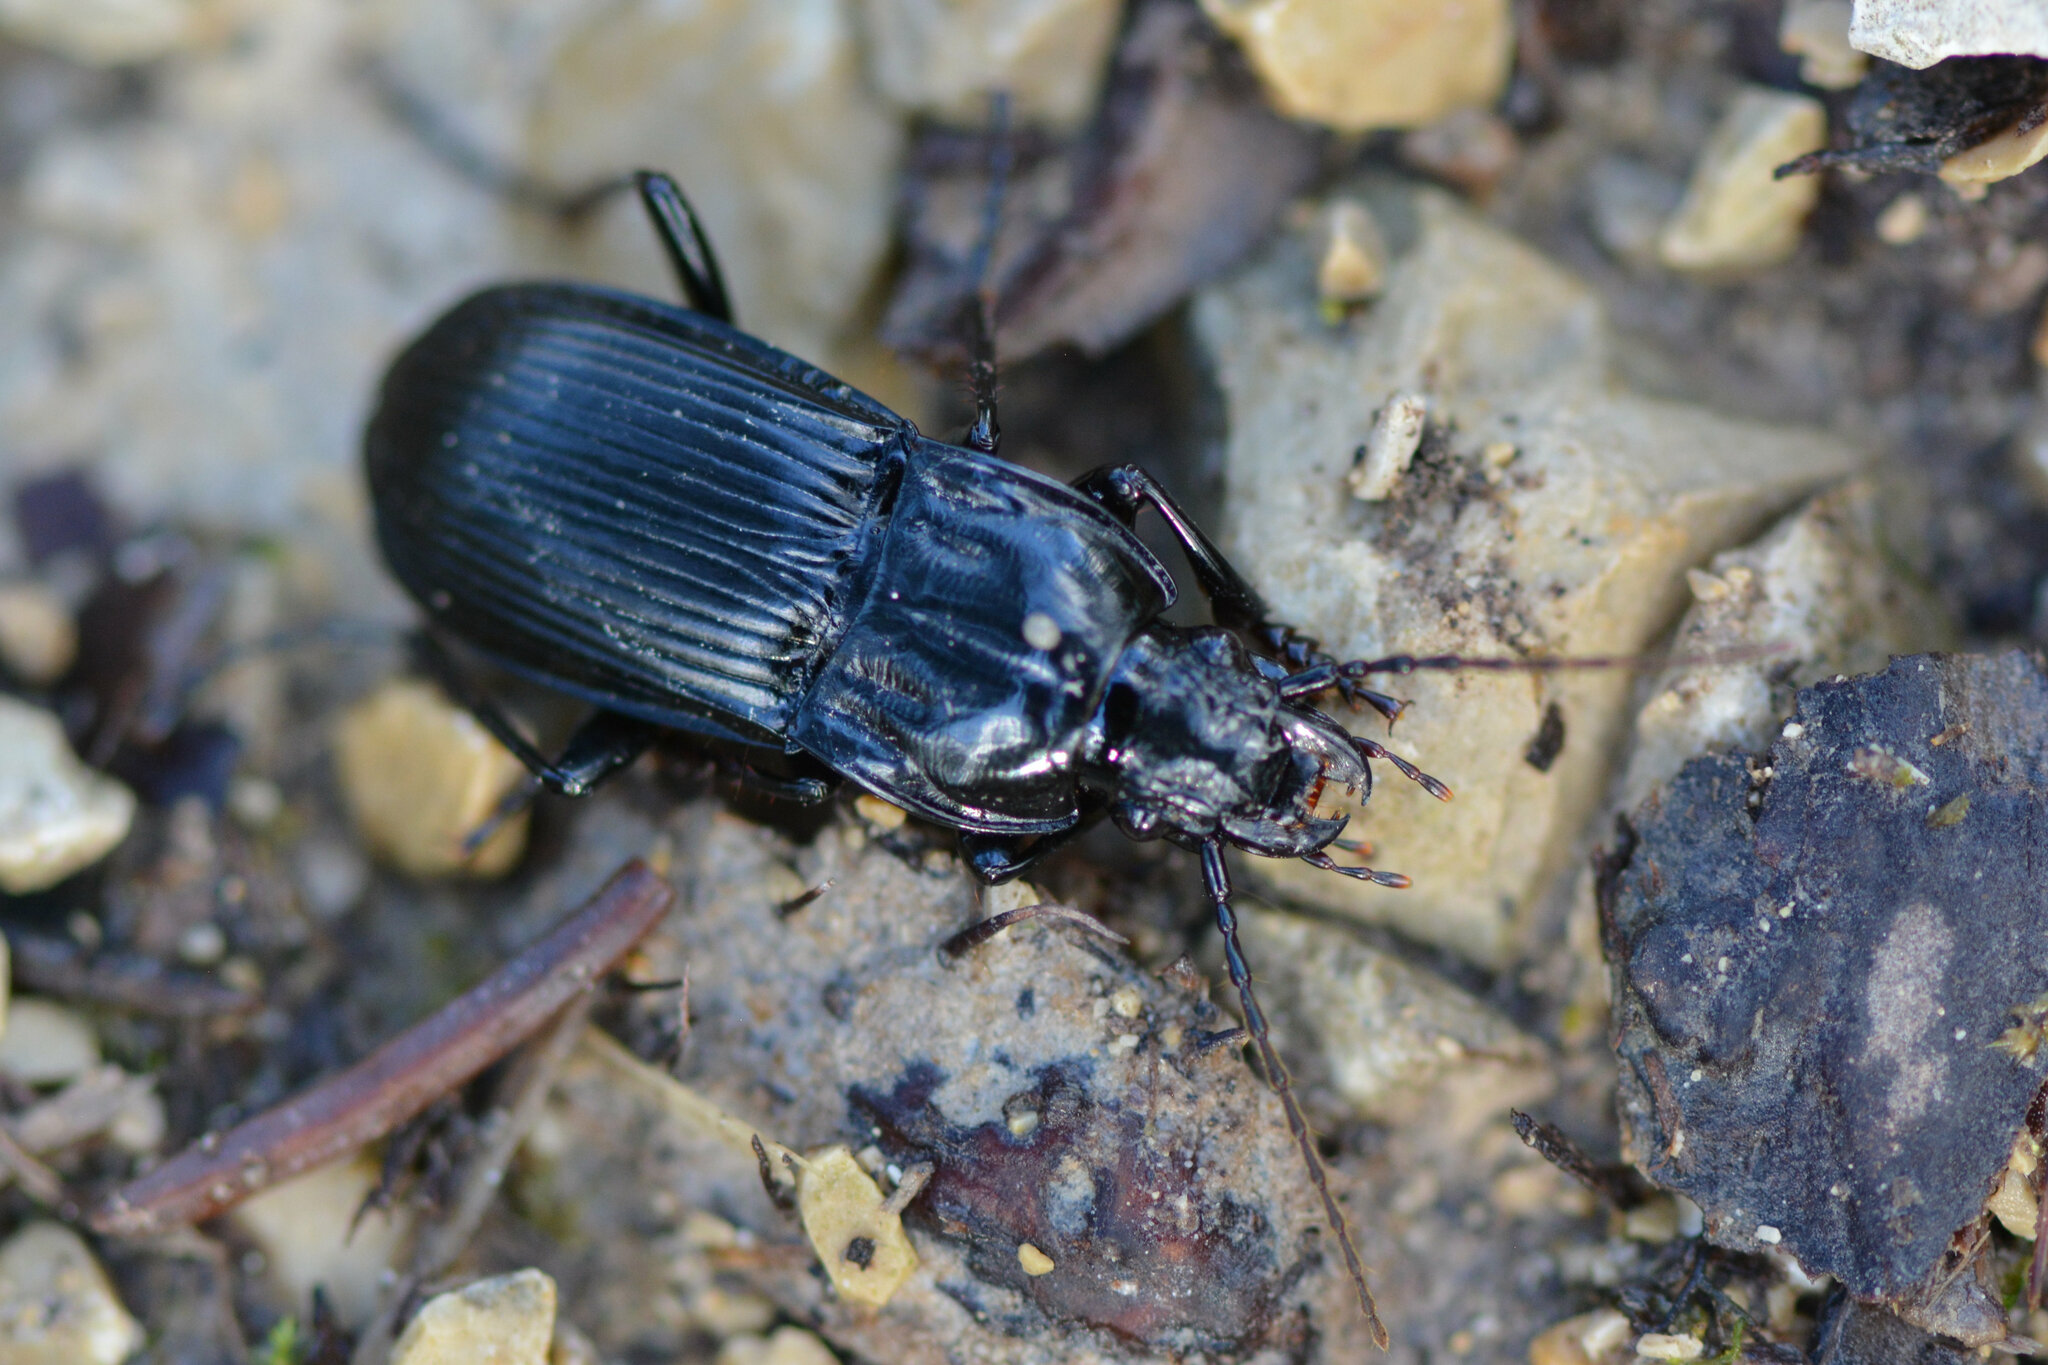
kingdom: Animalia
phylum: Arthropoda
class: Insecta
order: Coleoptera
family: Carabidae
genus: Abax
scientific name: Abax parallelepipedus
